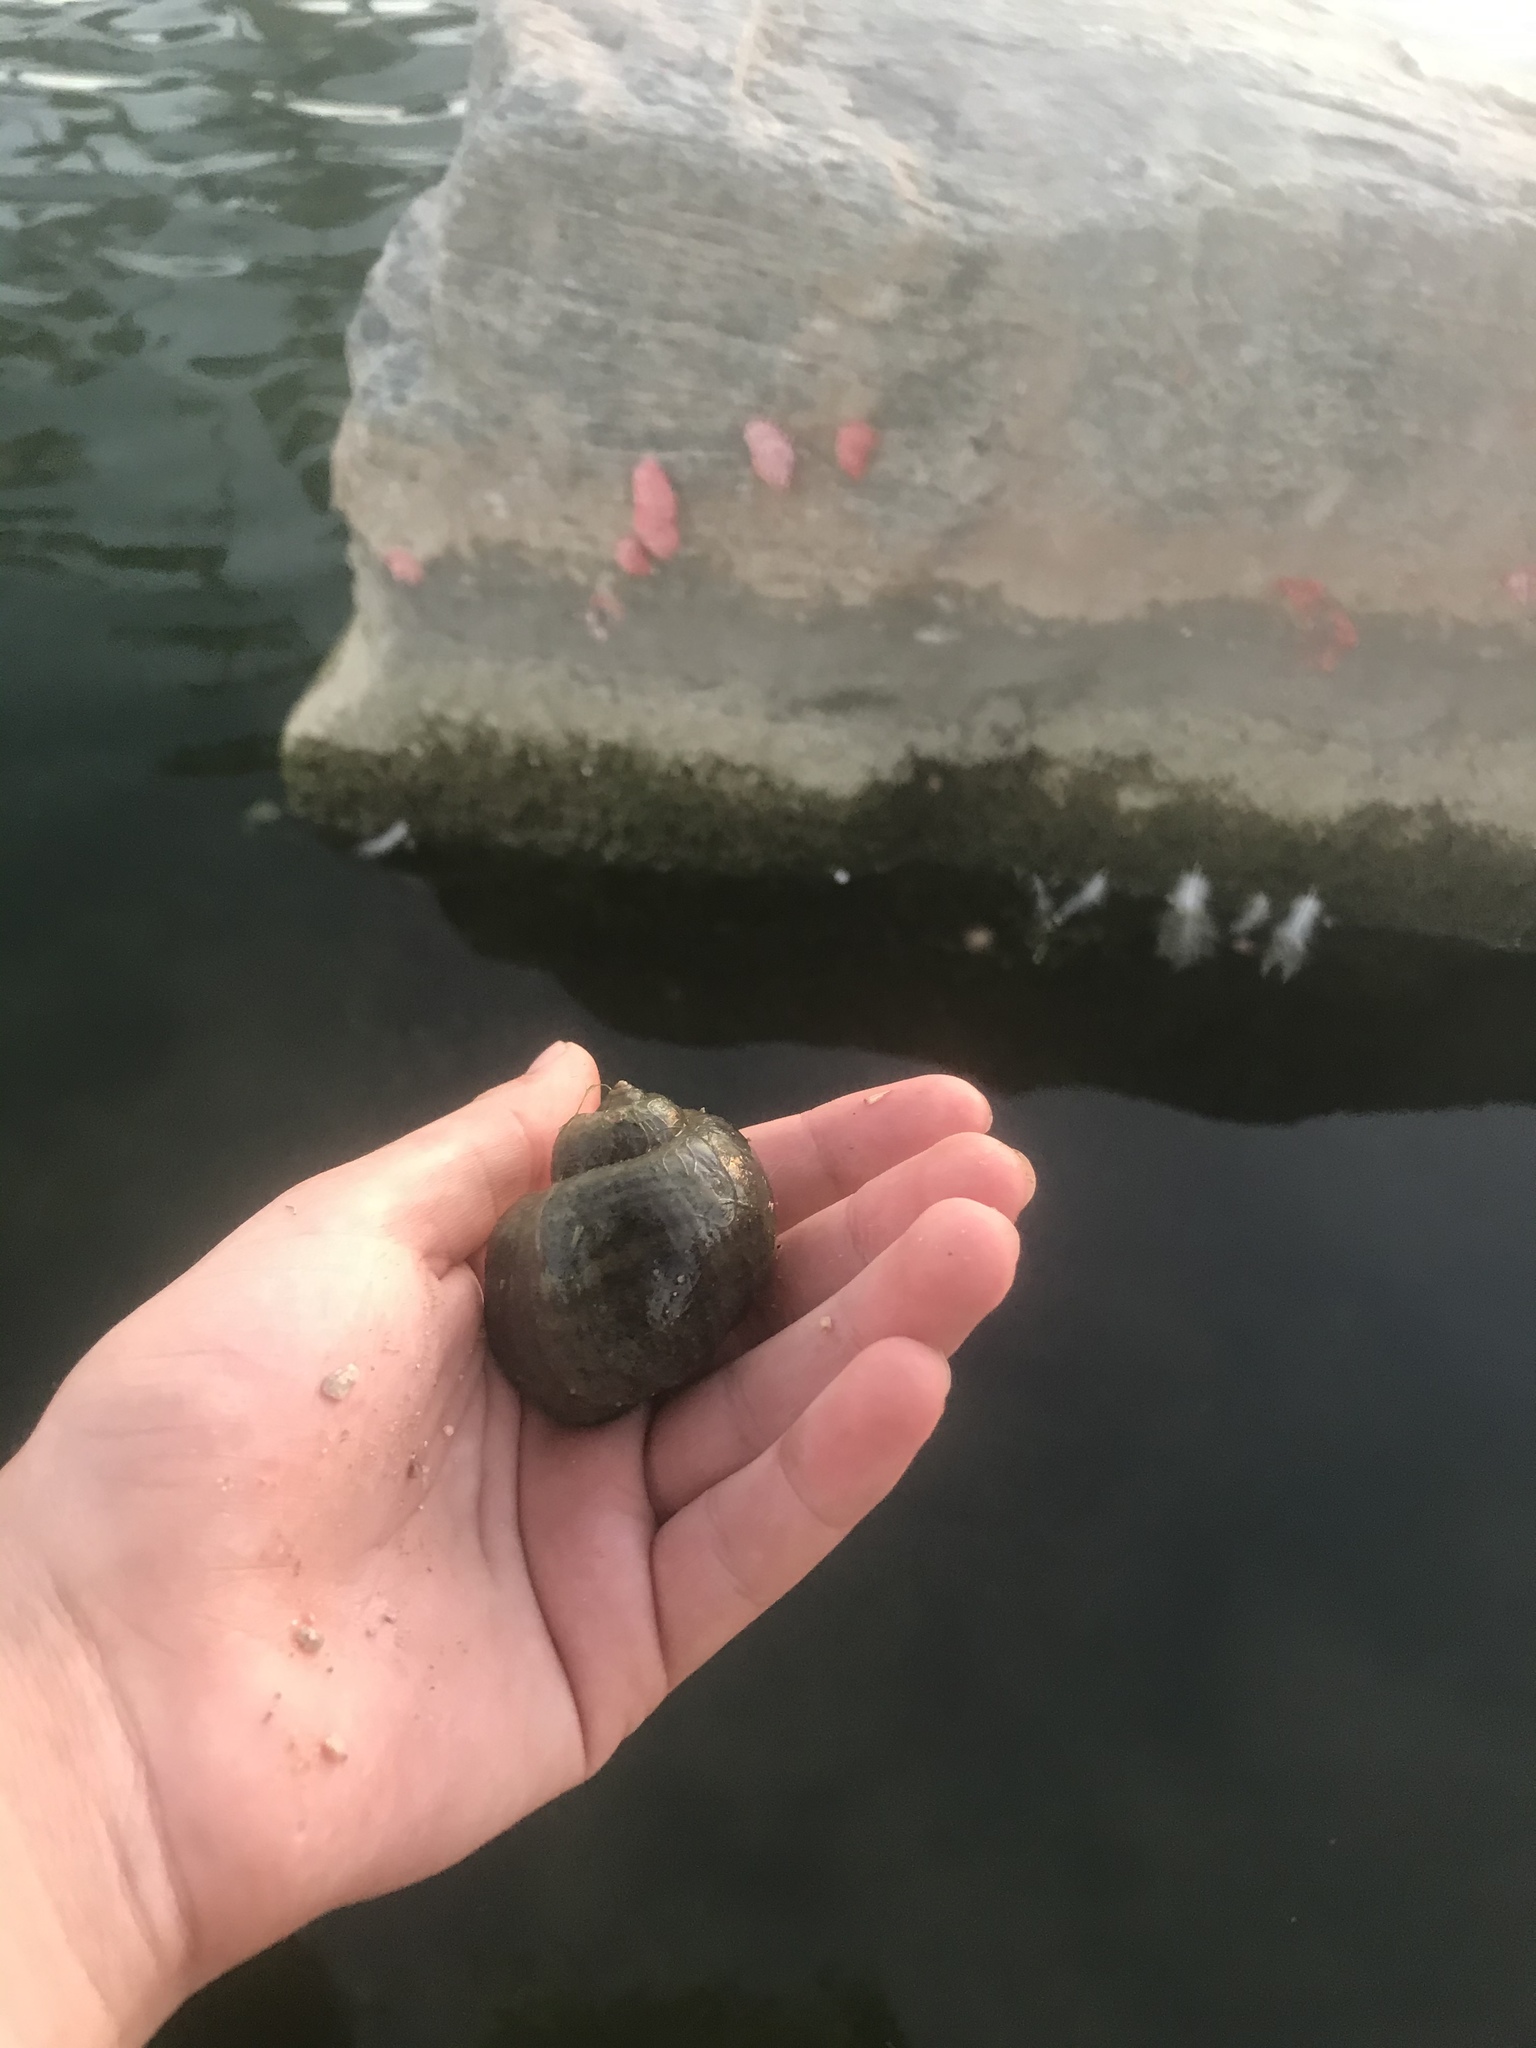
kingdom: Animalia
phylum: Mollusca
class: Gastropoda
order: Architaenioglossa
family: Ampullariidae
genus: Pomacea
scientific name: Pomacea canaliculata
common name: Channeled applesnail
